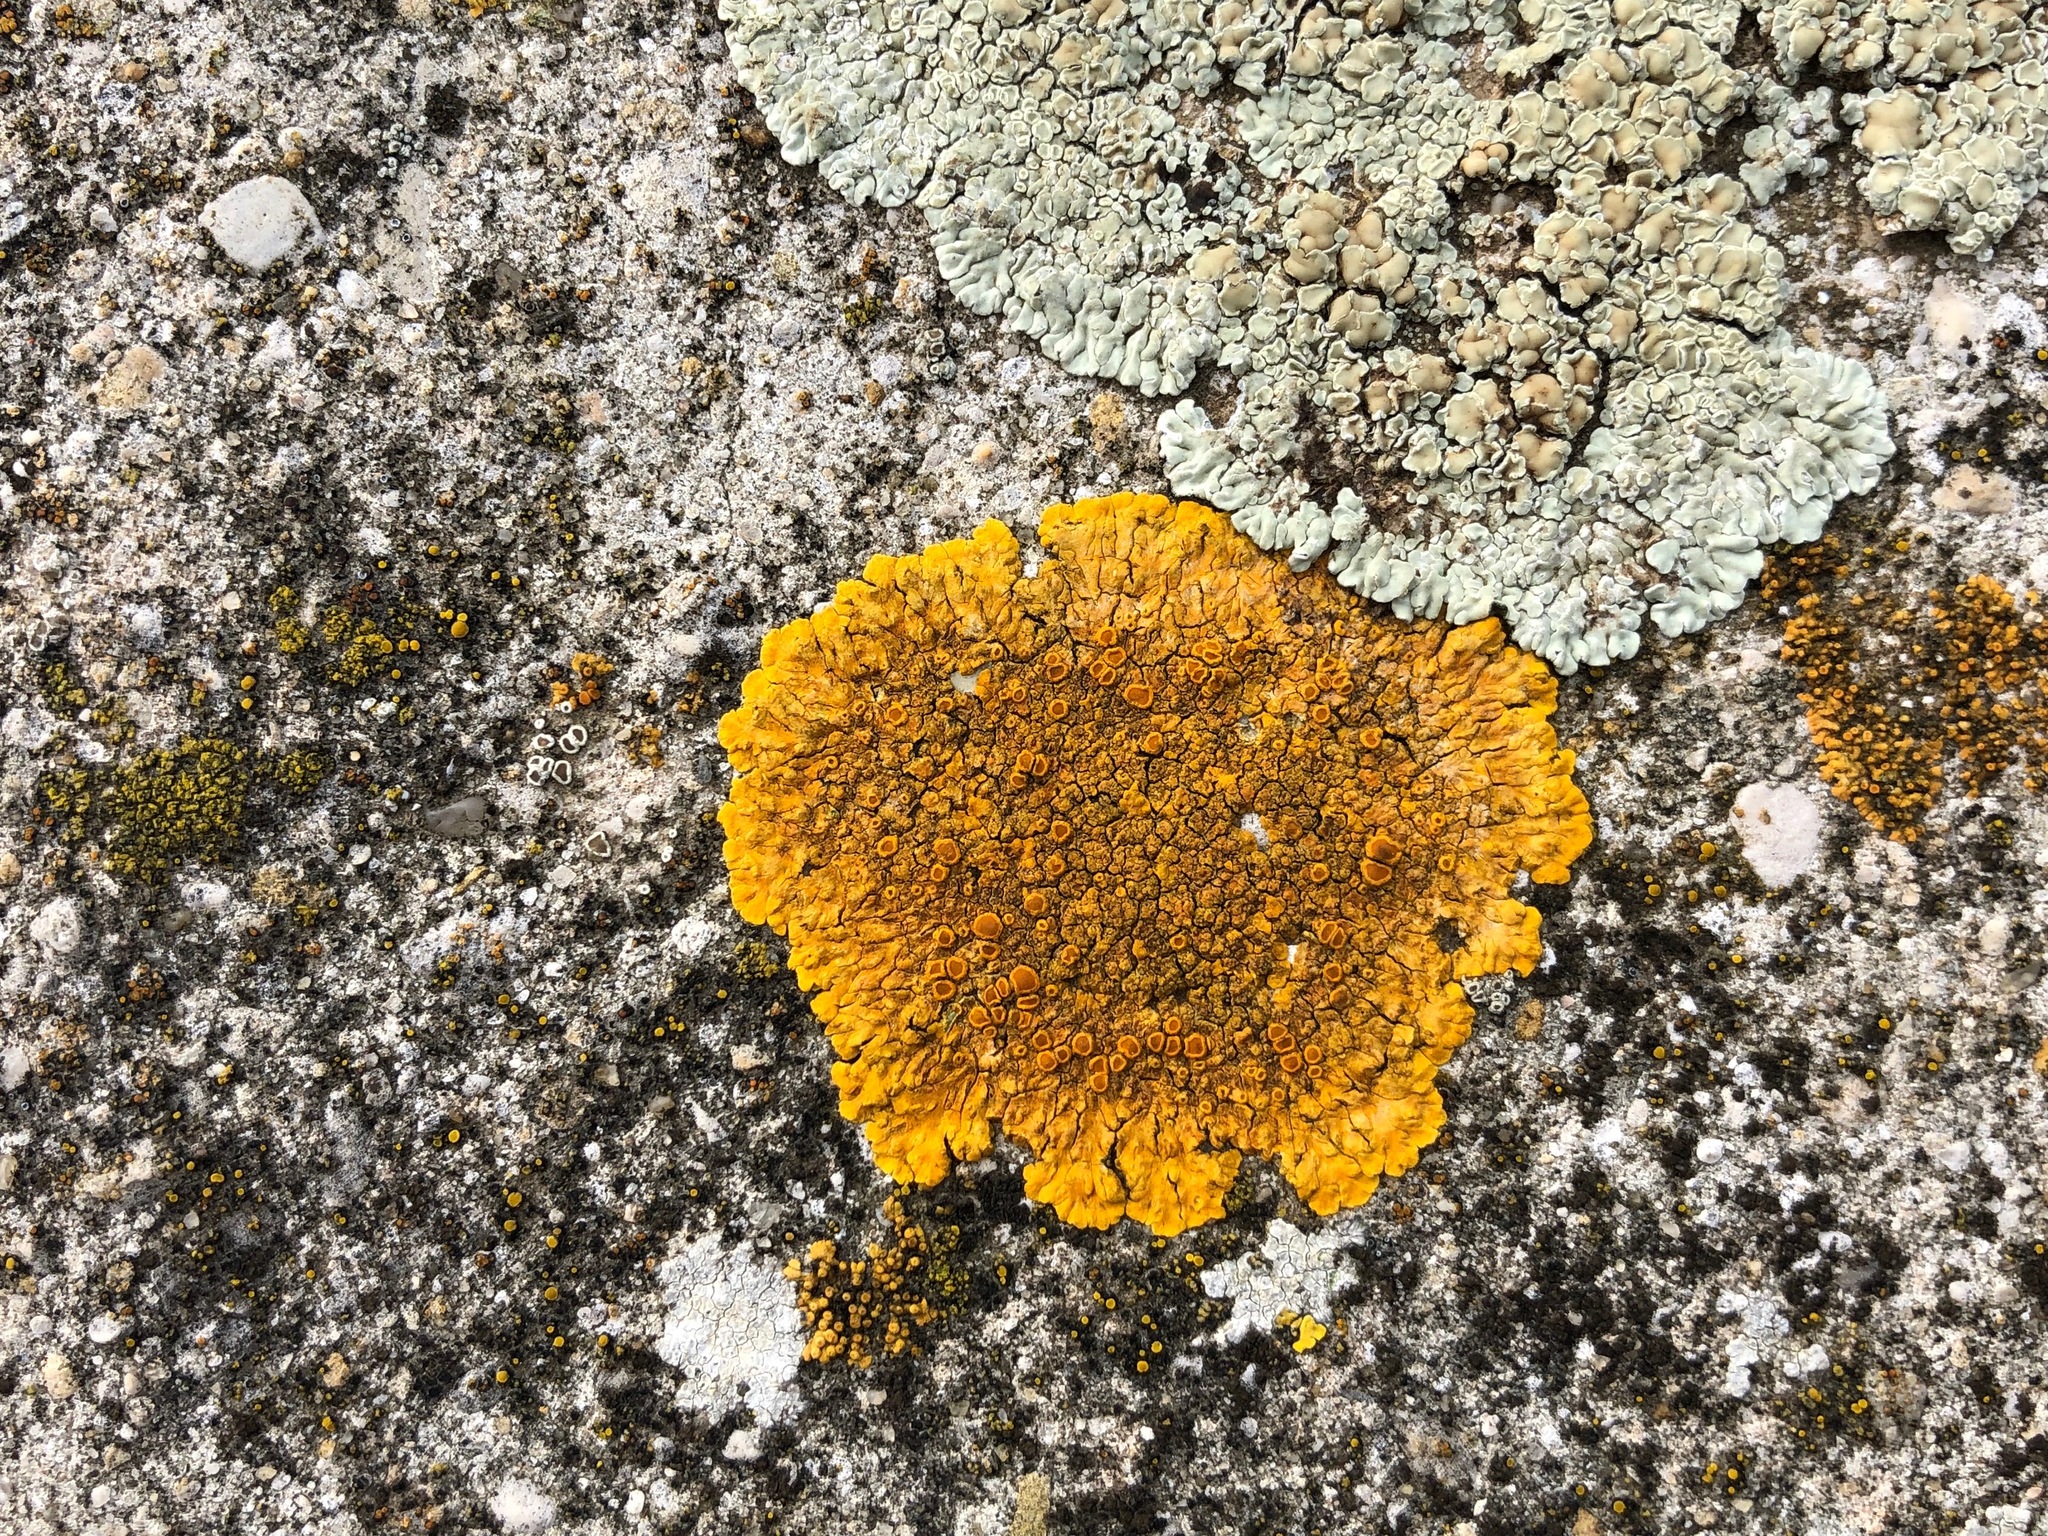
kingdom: Fungi
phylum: Ascomycota
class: Lecanoromycetes
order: Teloschistales
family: Teloschistaceae
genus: Variospora
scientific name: Variospora aurantia
